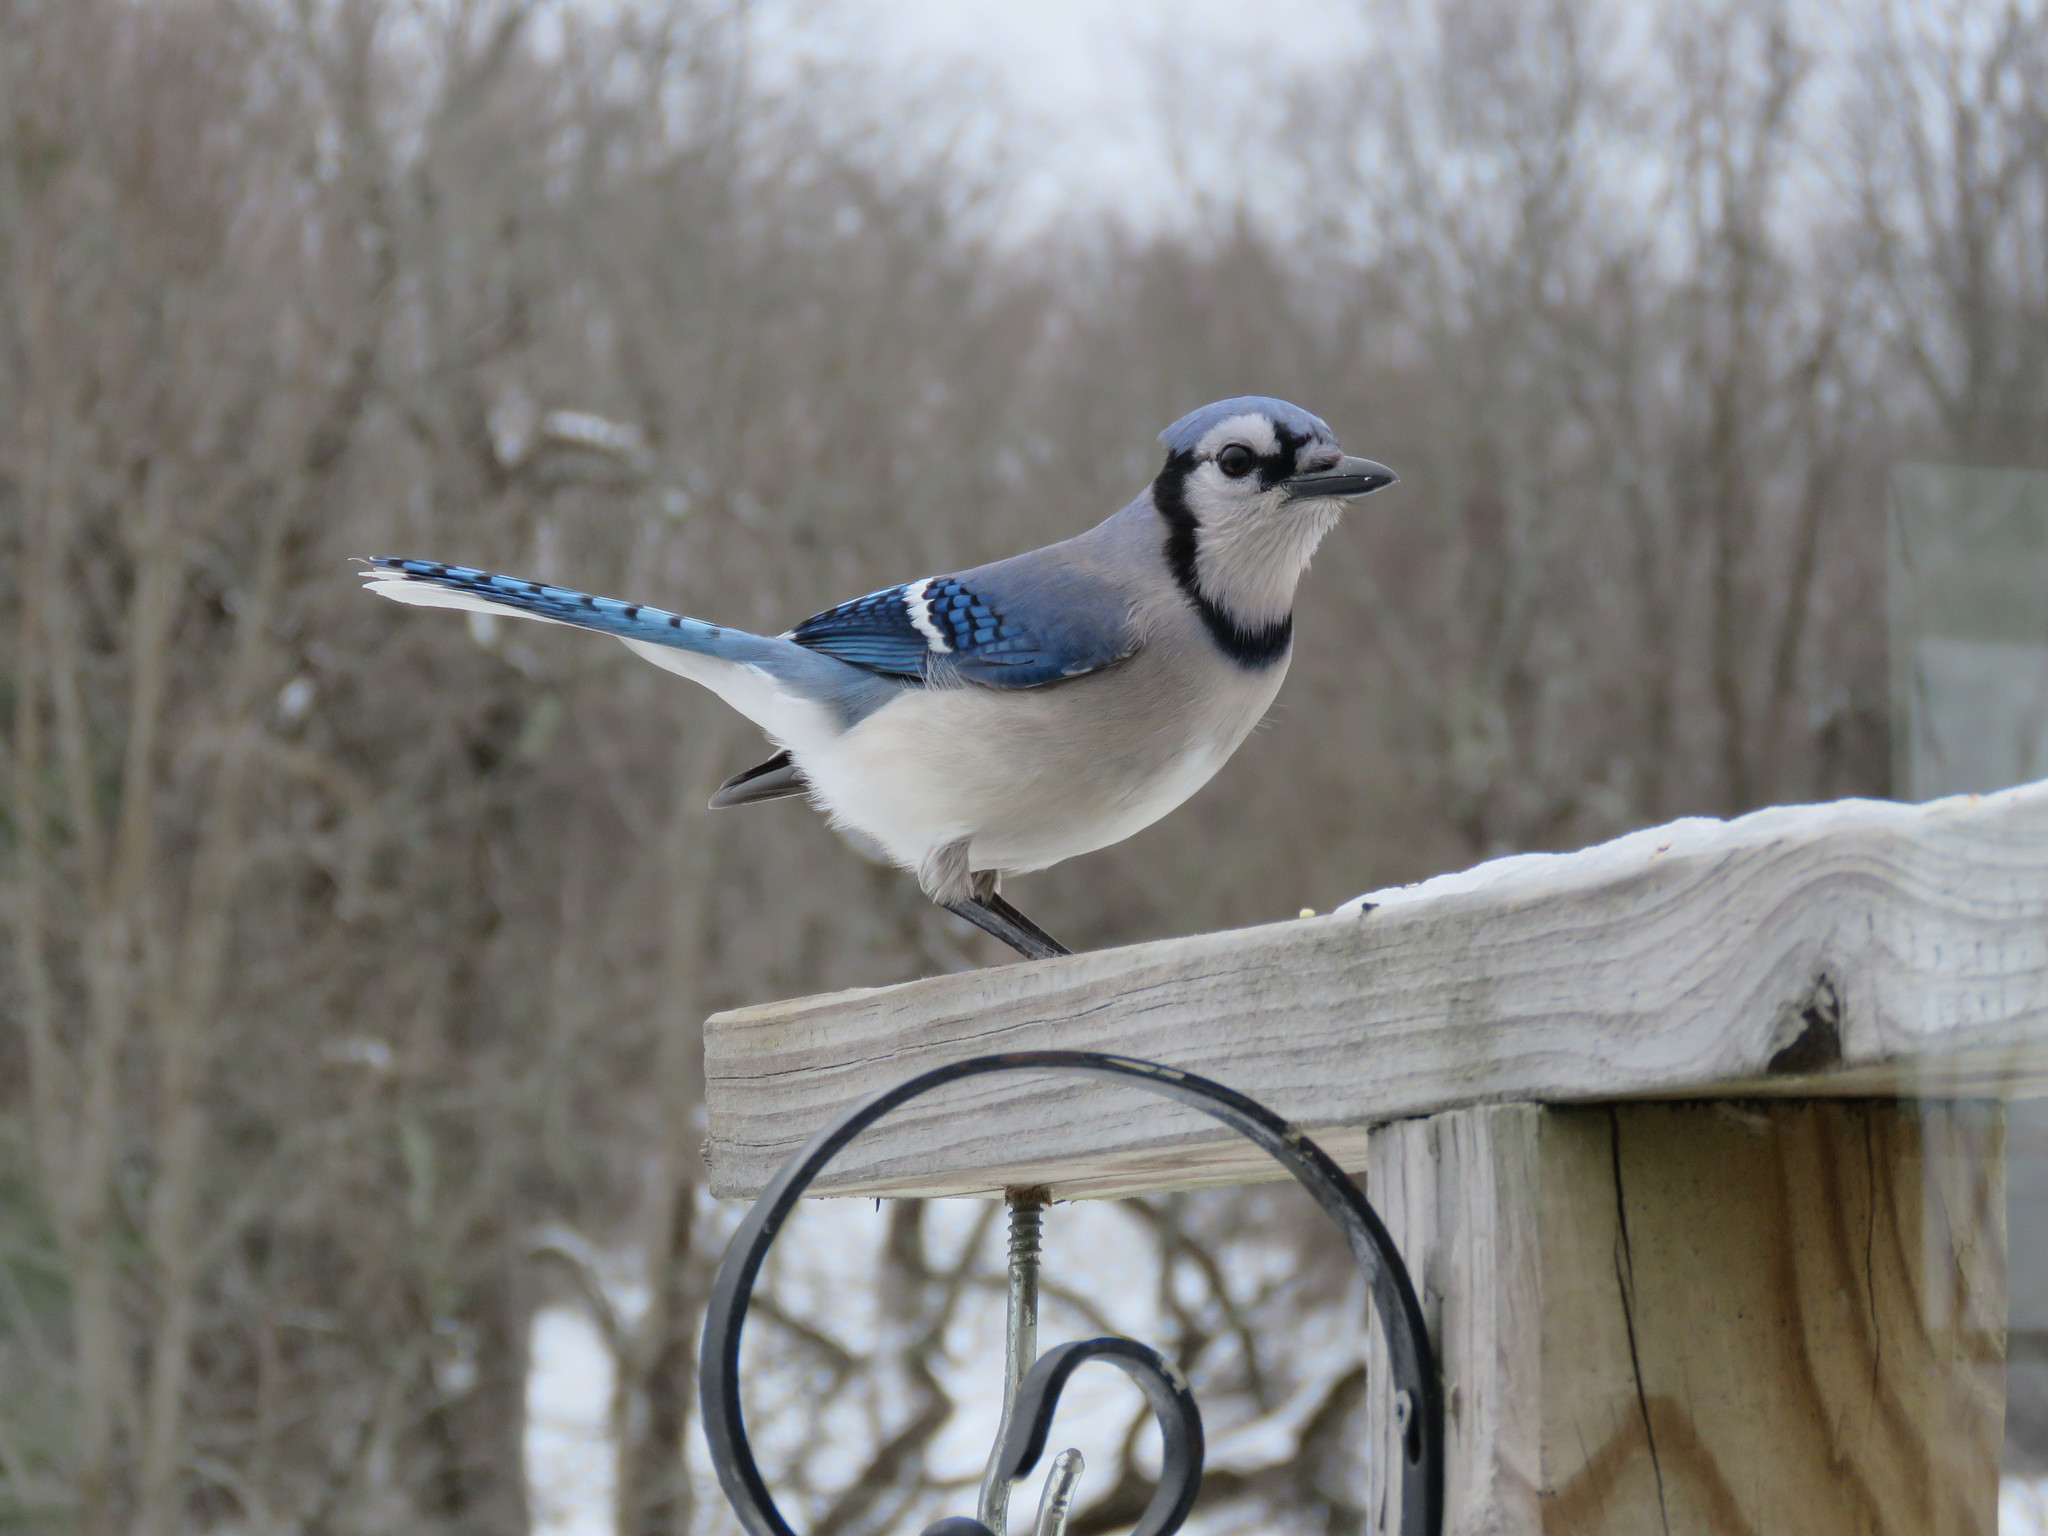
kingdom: Animalia
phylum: Chordata
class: Aves
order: Passeriformes
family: Corvidae
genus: Cyanocitta
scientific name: Cyanocitta cristata
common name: Blue jay
